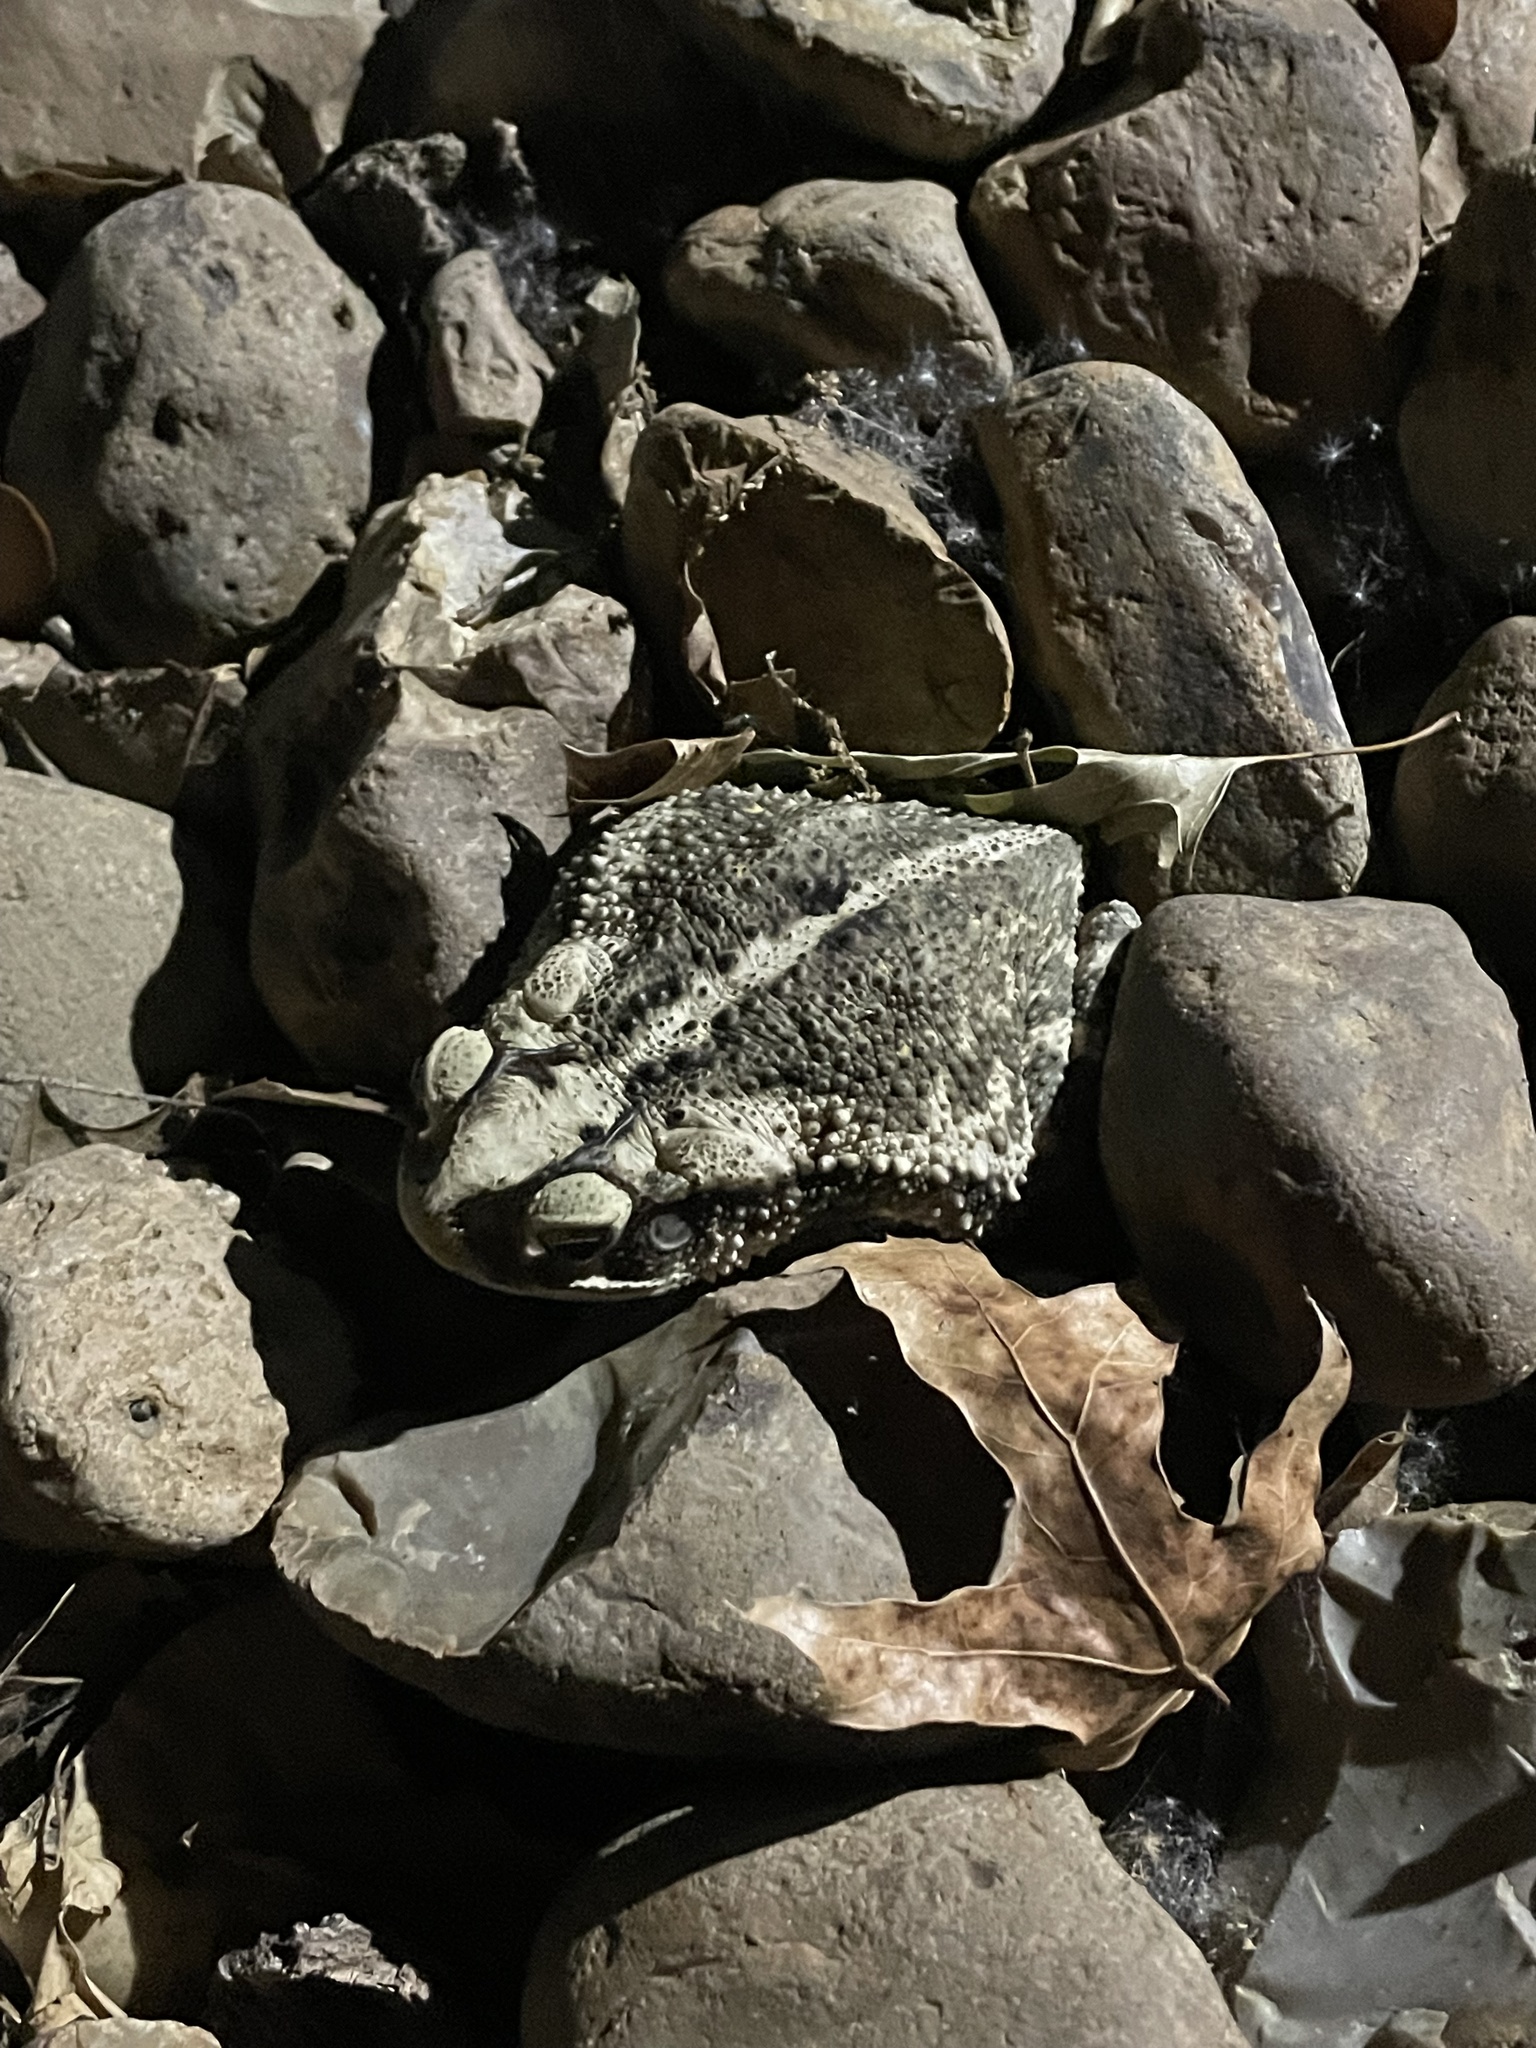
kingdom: Animalia
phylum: Chordata
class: Amphibia
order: Anura
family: Bufonidae
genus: Incilius
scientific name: Incilius nebulifer
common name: Gulf coast toad
